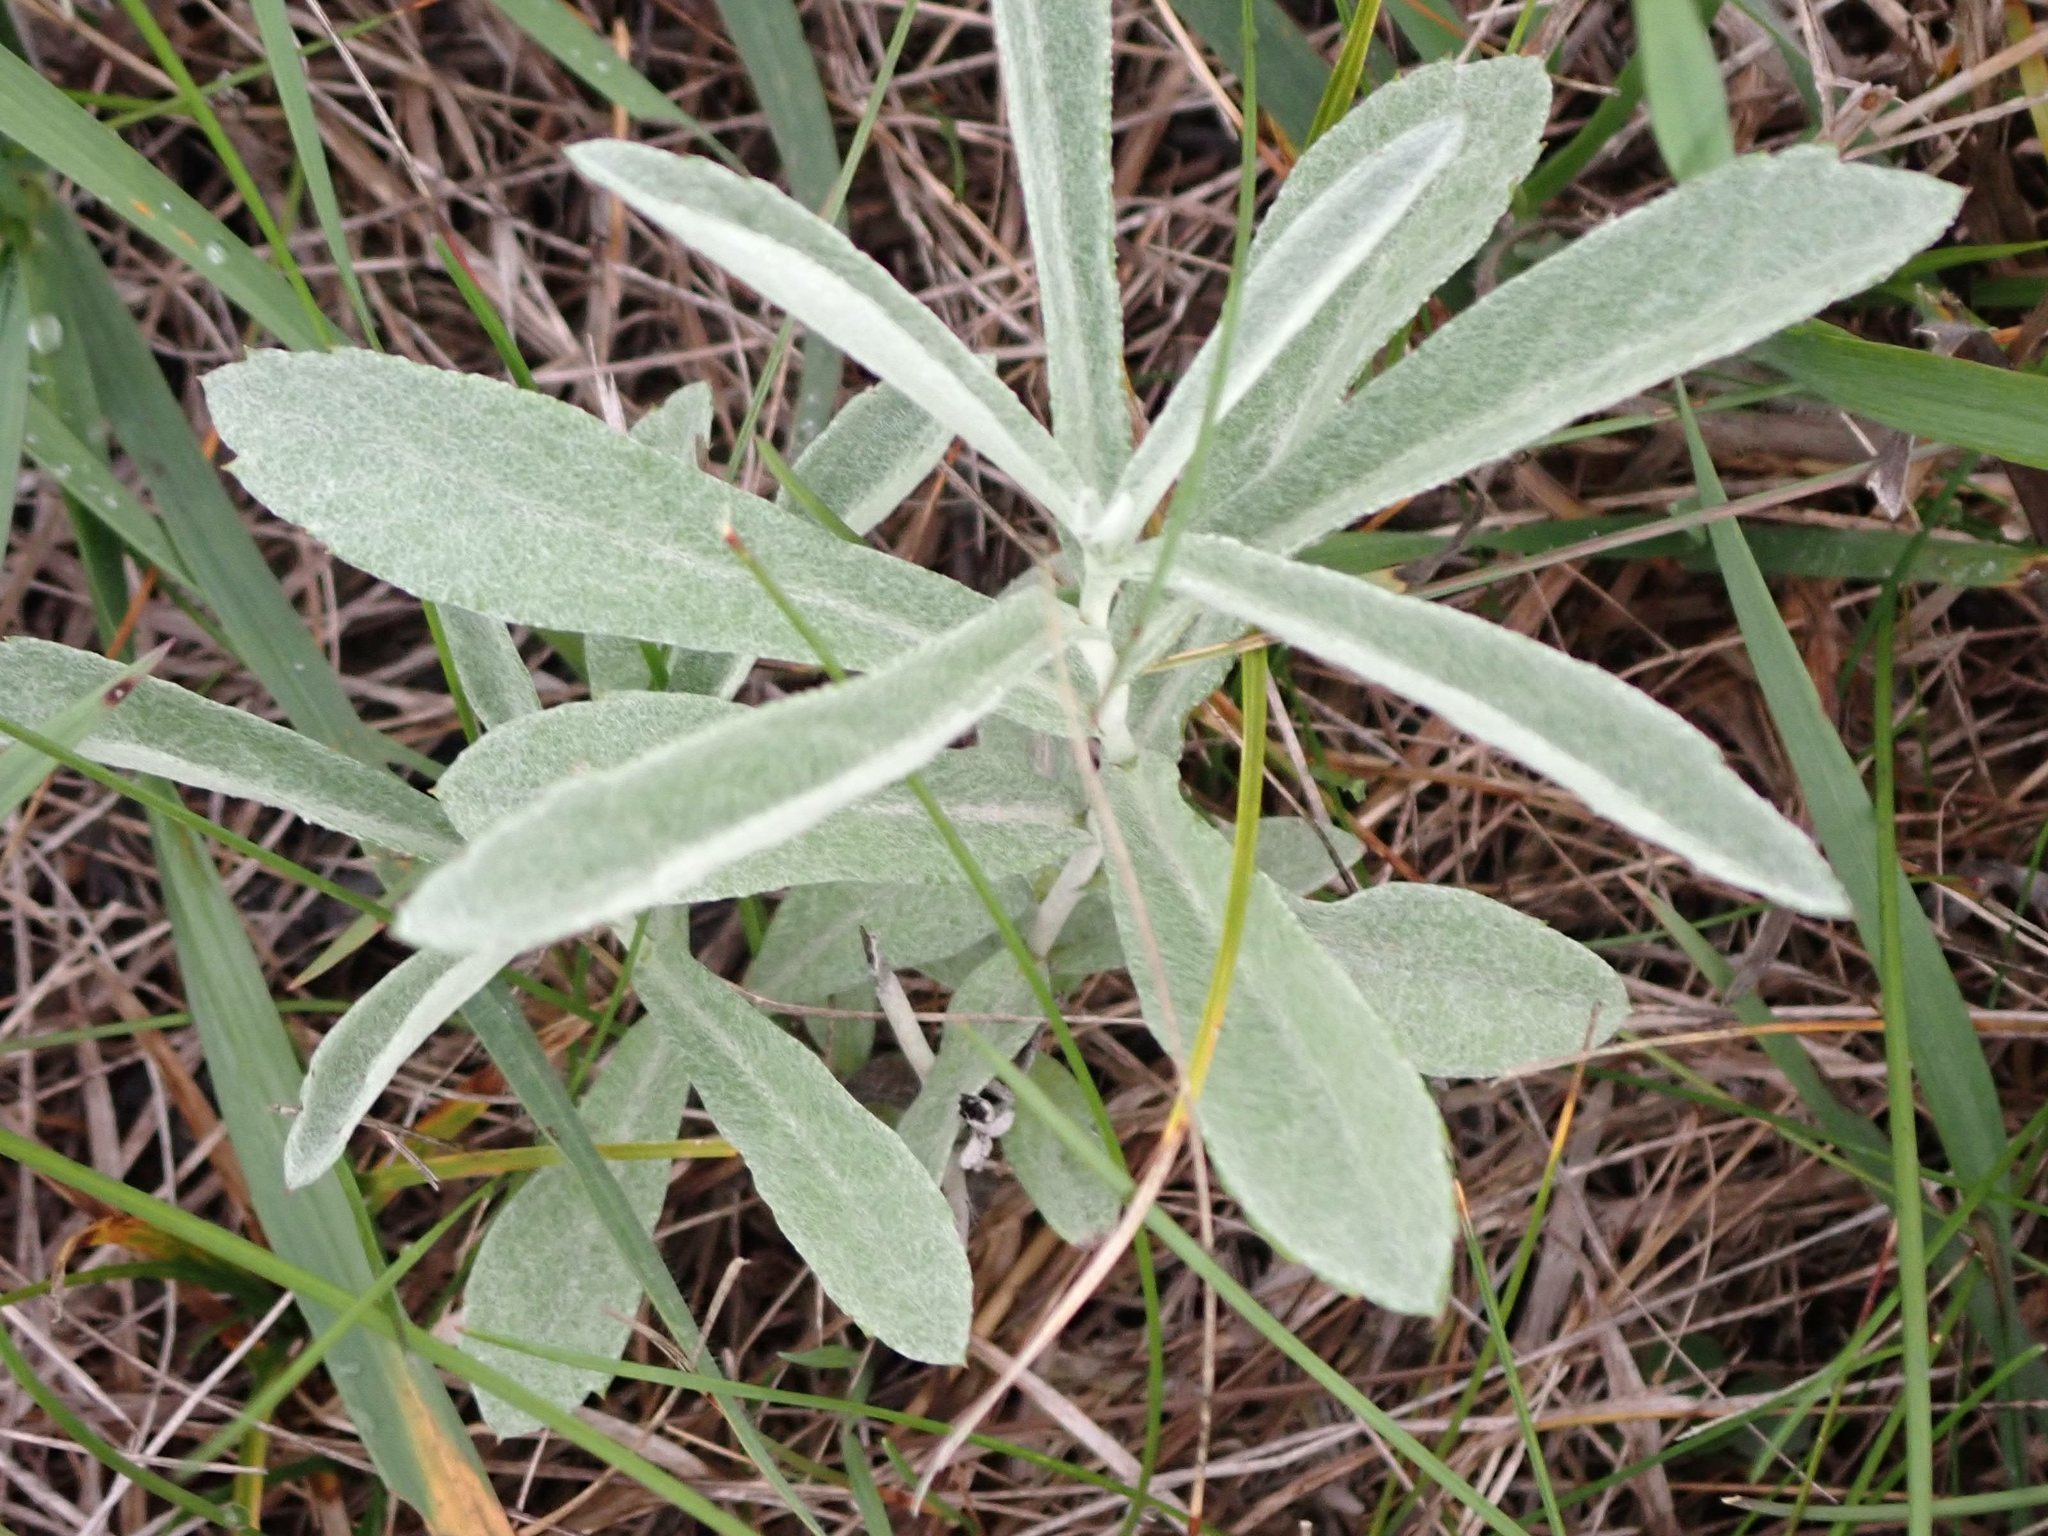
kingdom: Plantae
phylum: Tracheophyta
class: Magnoliopsida
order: Asterales
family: Asteraceae
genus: Artemisia
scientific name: Artemisia ludoviciana
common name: Western mugwort
